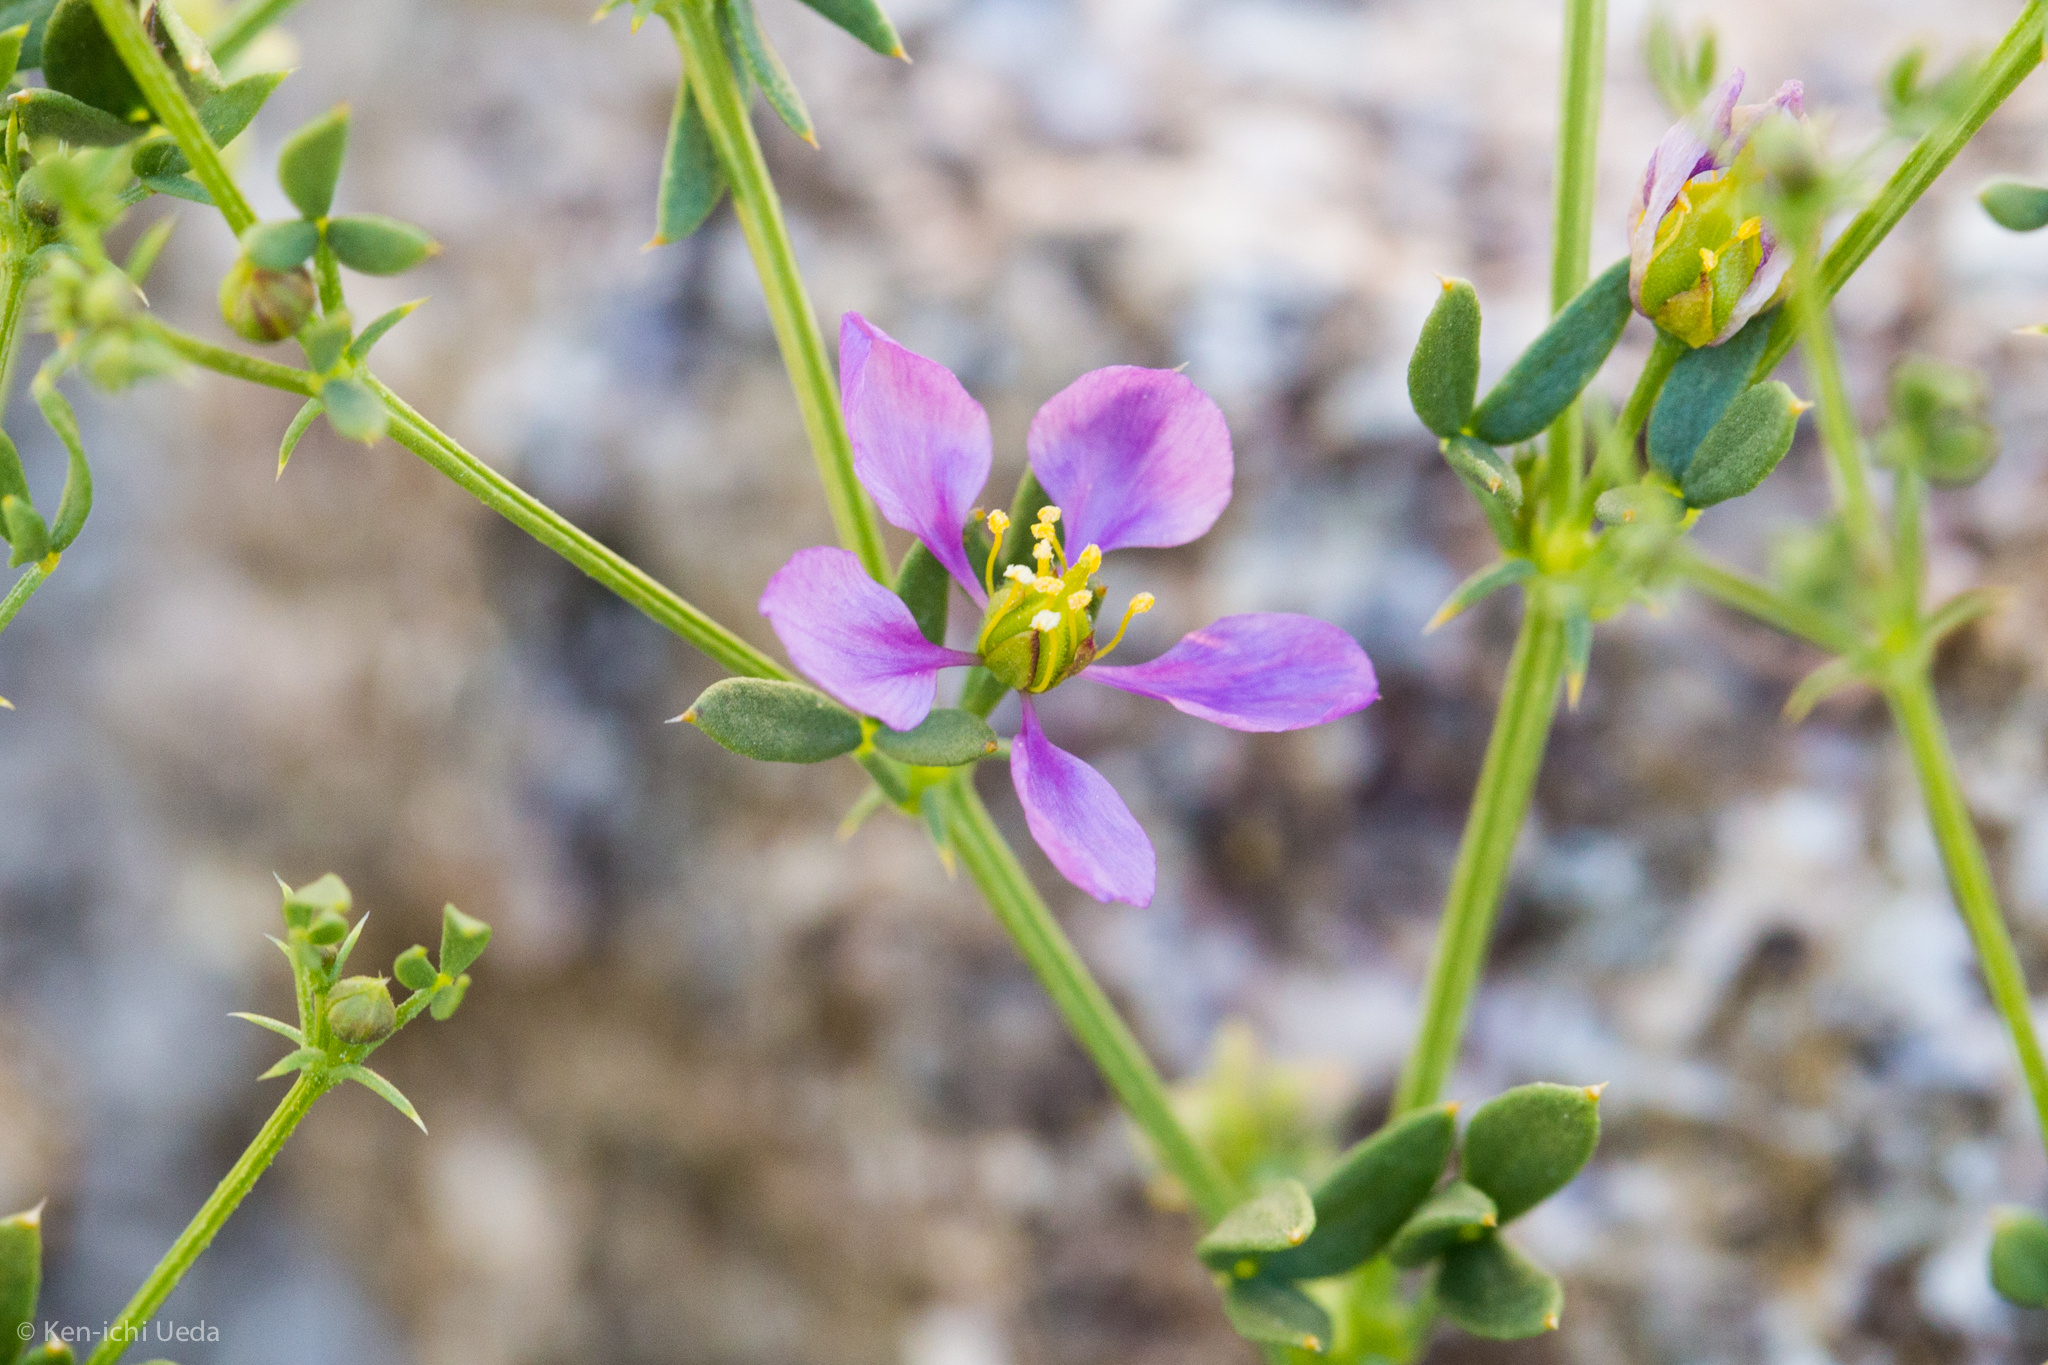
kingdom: Plantae
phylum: Tracheophyta
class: Magnoliopsida
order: Zygophyllales
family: Zygophyllaceae
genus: Fagonia
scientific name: Fagonia laevis
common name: California fagonbush
